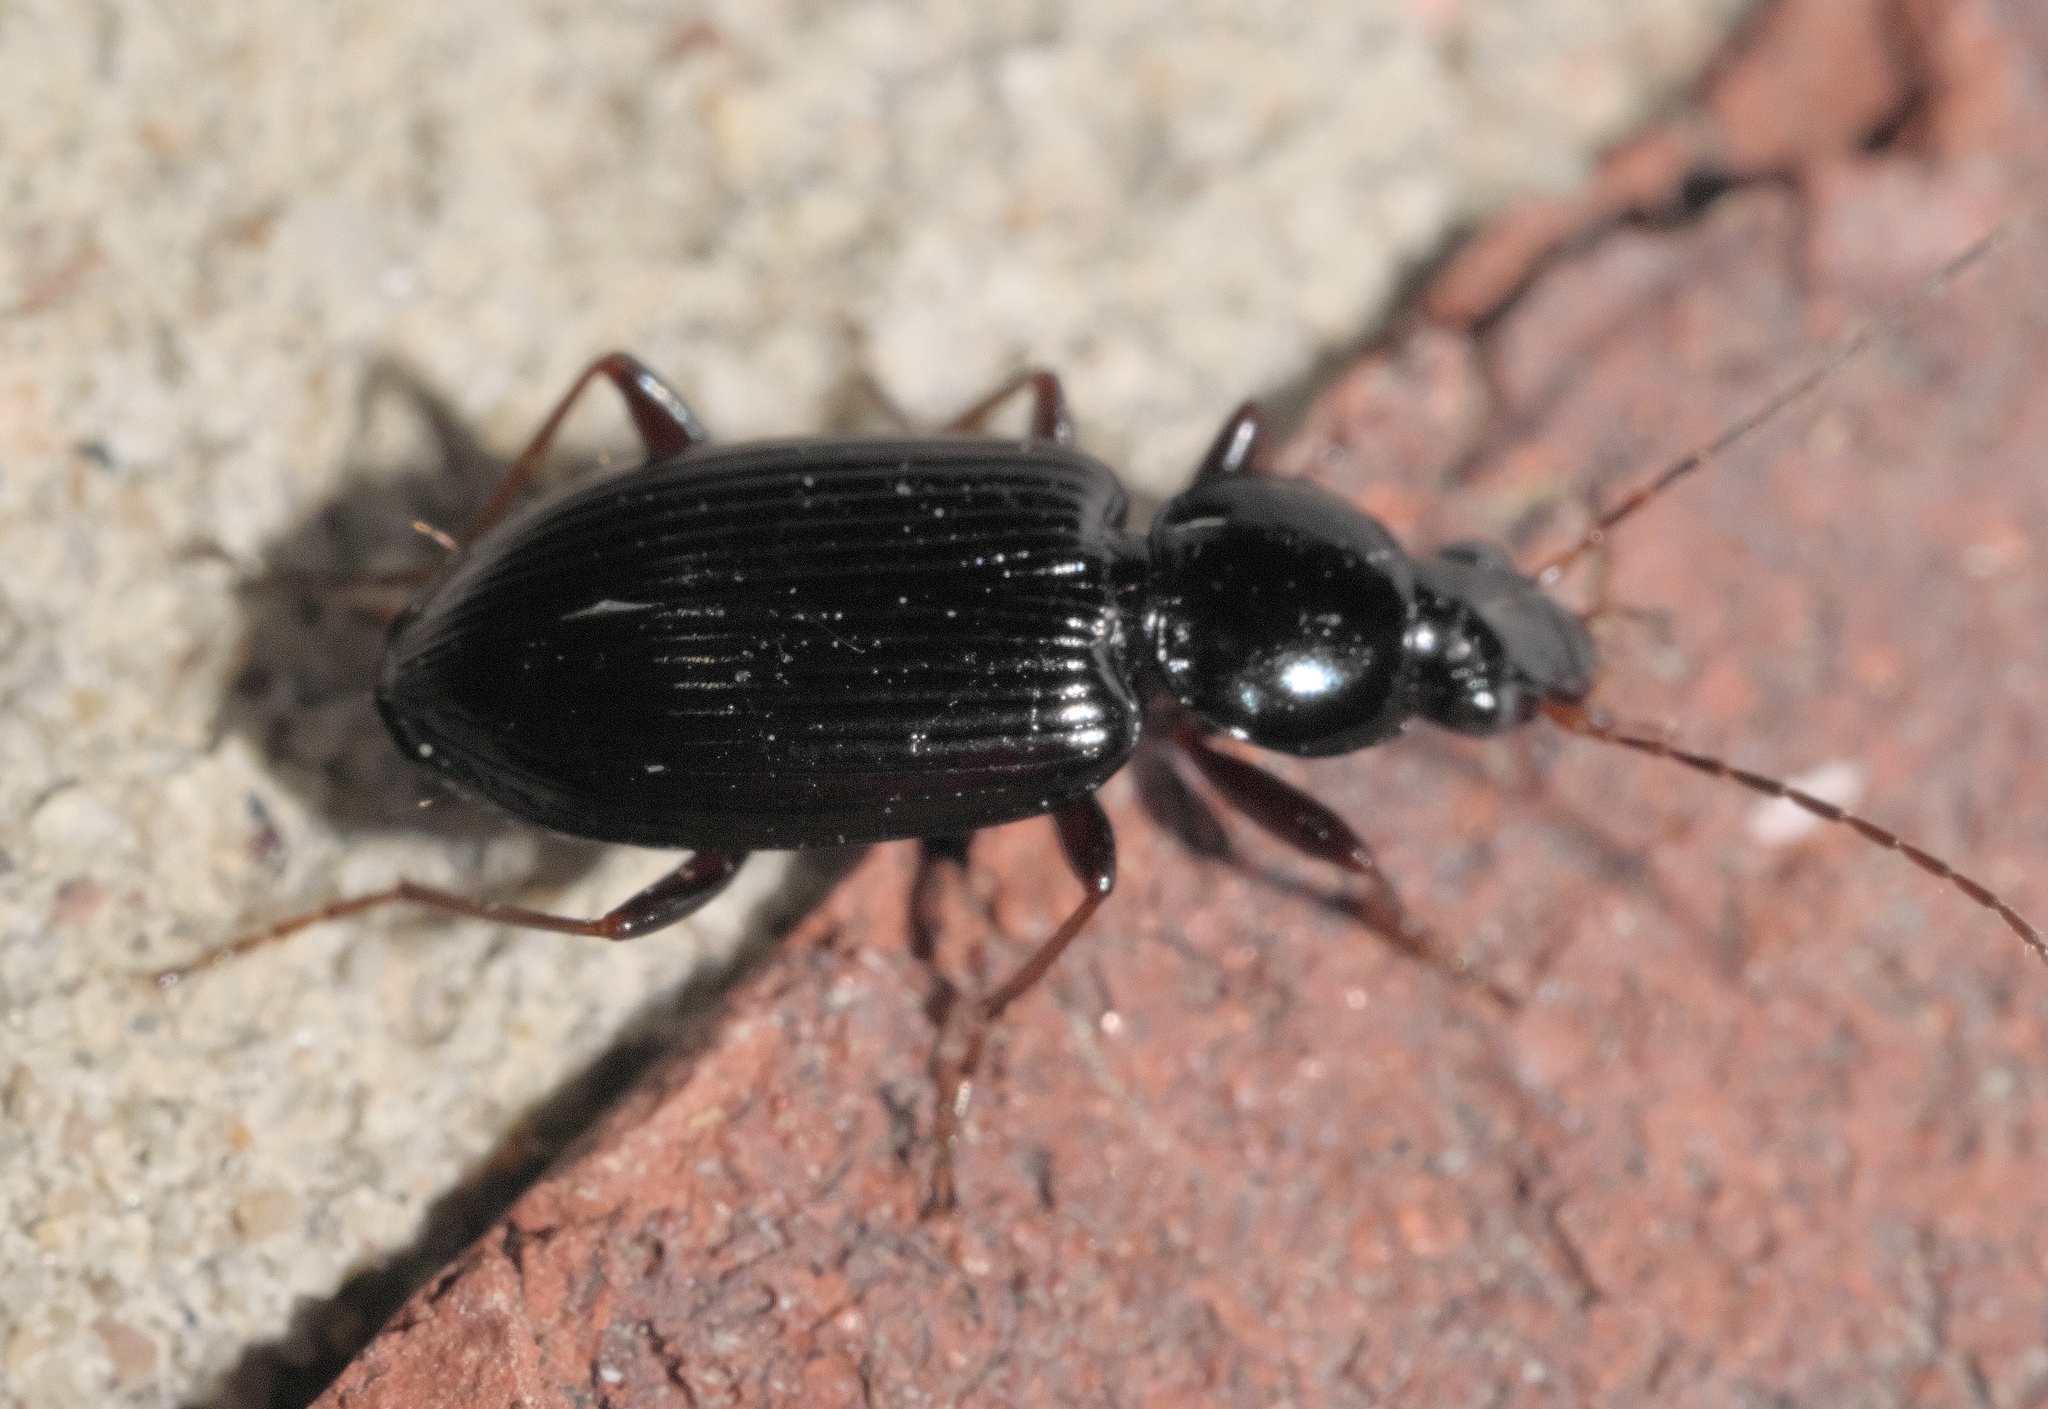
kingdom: Animalia
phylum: Arthropoda
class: Insecta
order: Coleoptera
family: Carabidae
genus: Agonum
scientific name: Agonum punctiforme
